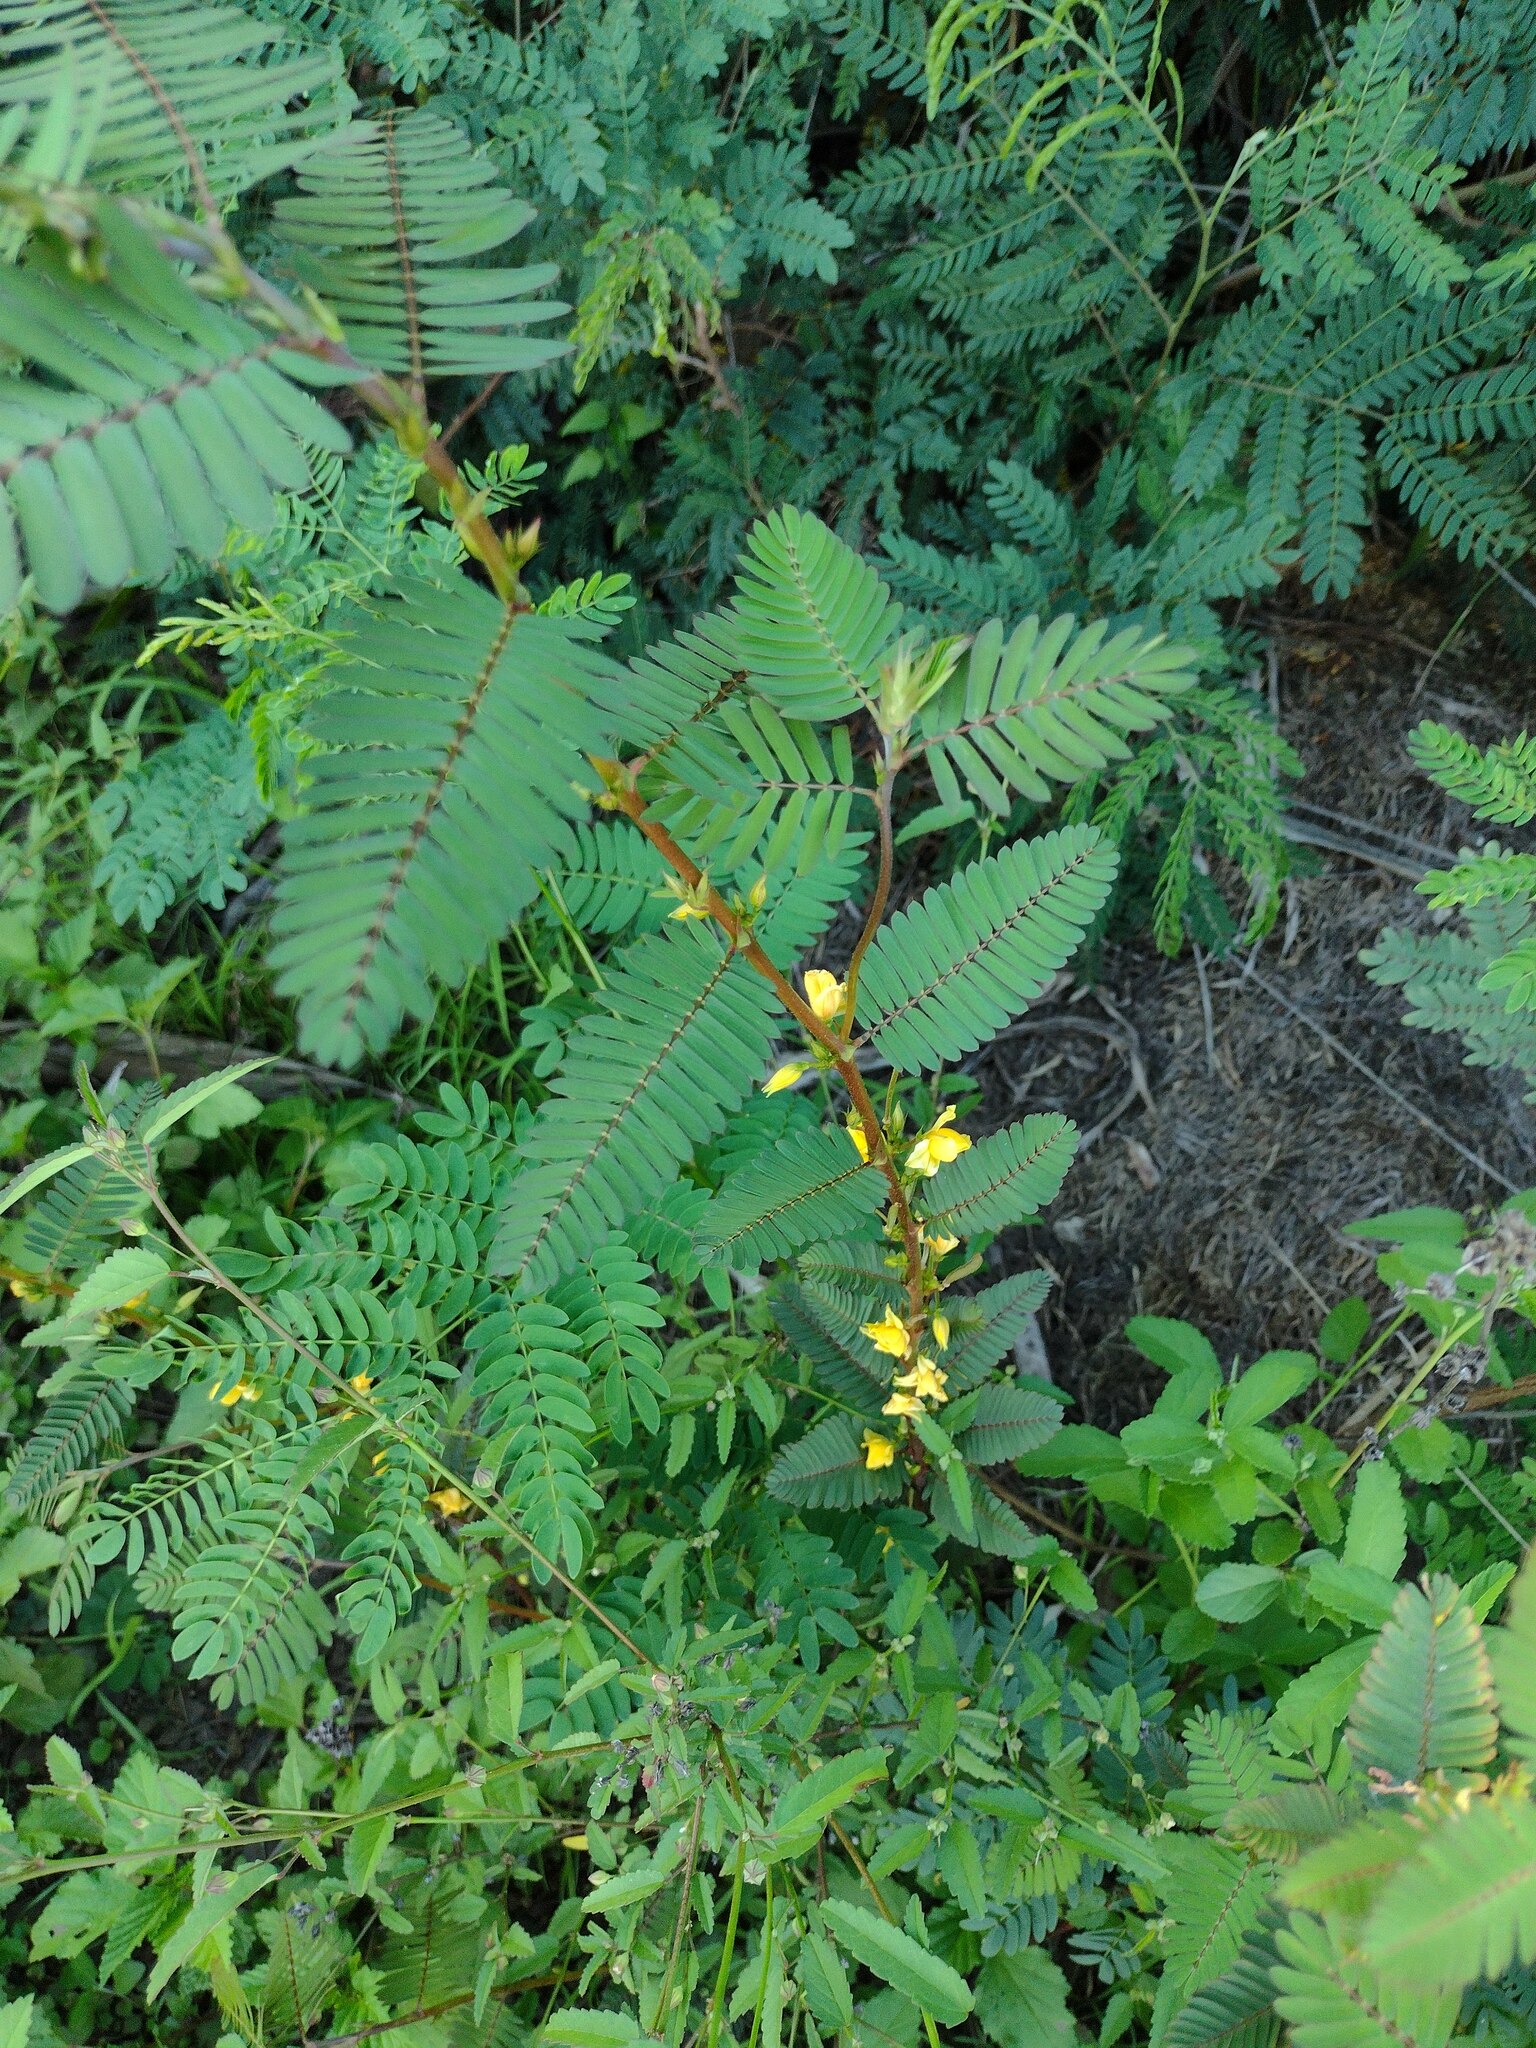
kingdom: Plantae
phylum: Tracheophyta
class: Magnoliopsida
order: Fabales
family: Fabaceae
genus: Chamaecrista
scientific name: Chamaecrista nictitans
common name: Sensitive cassia
